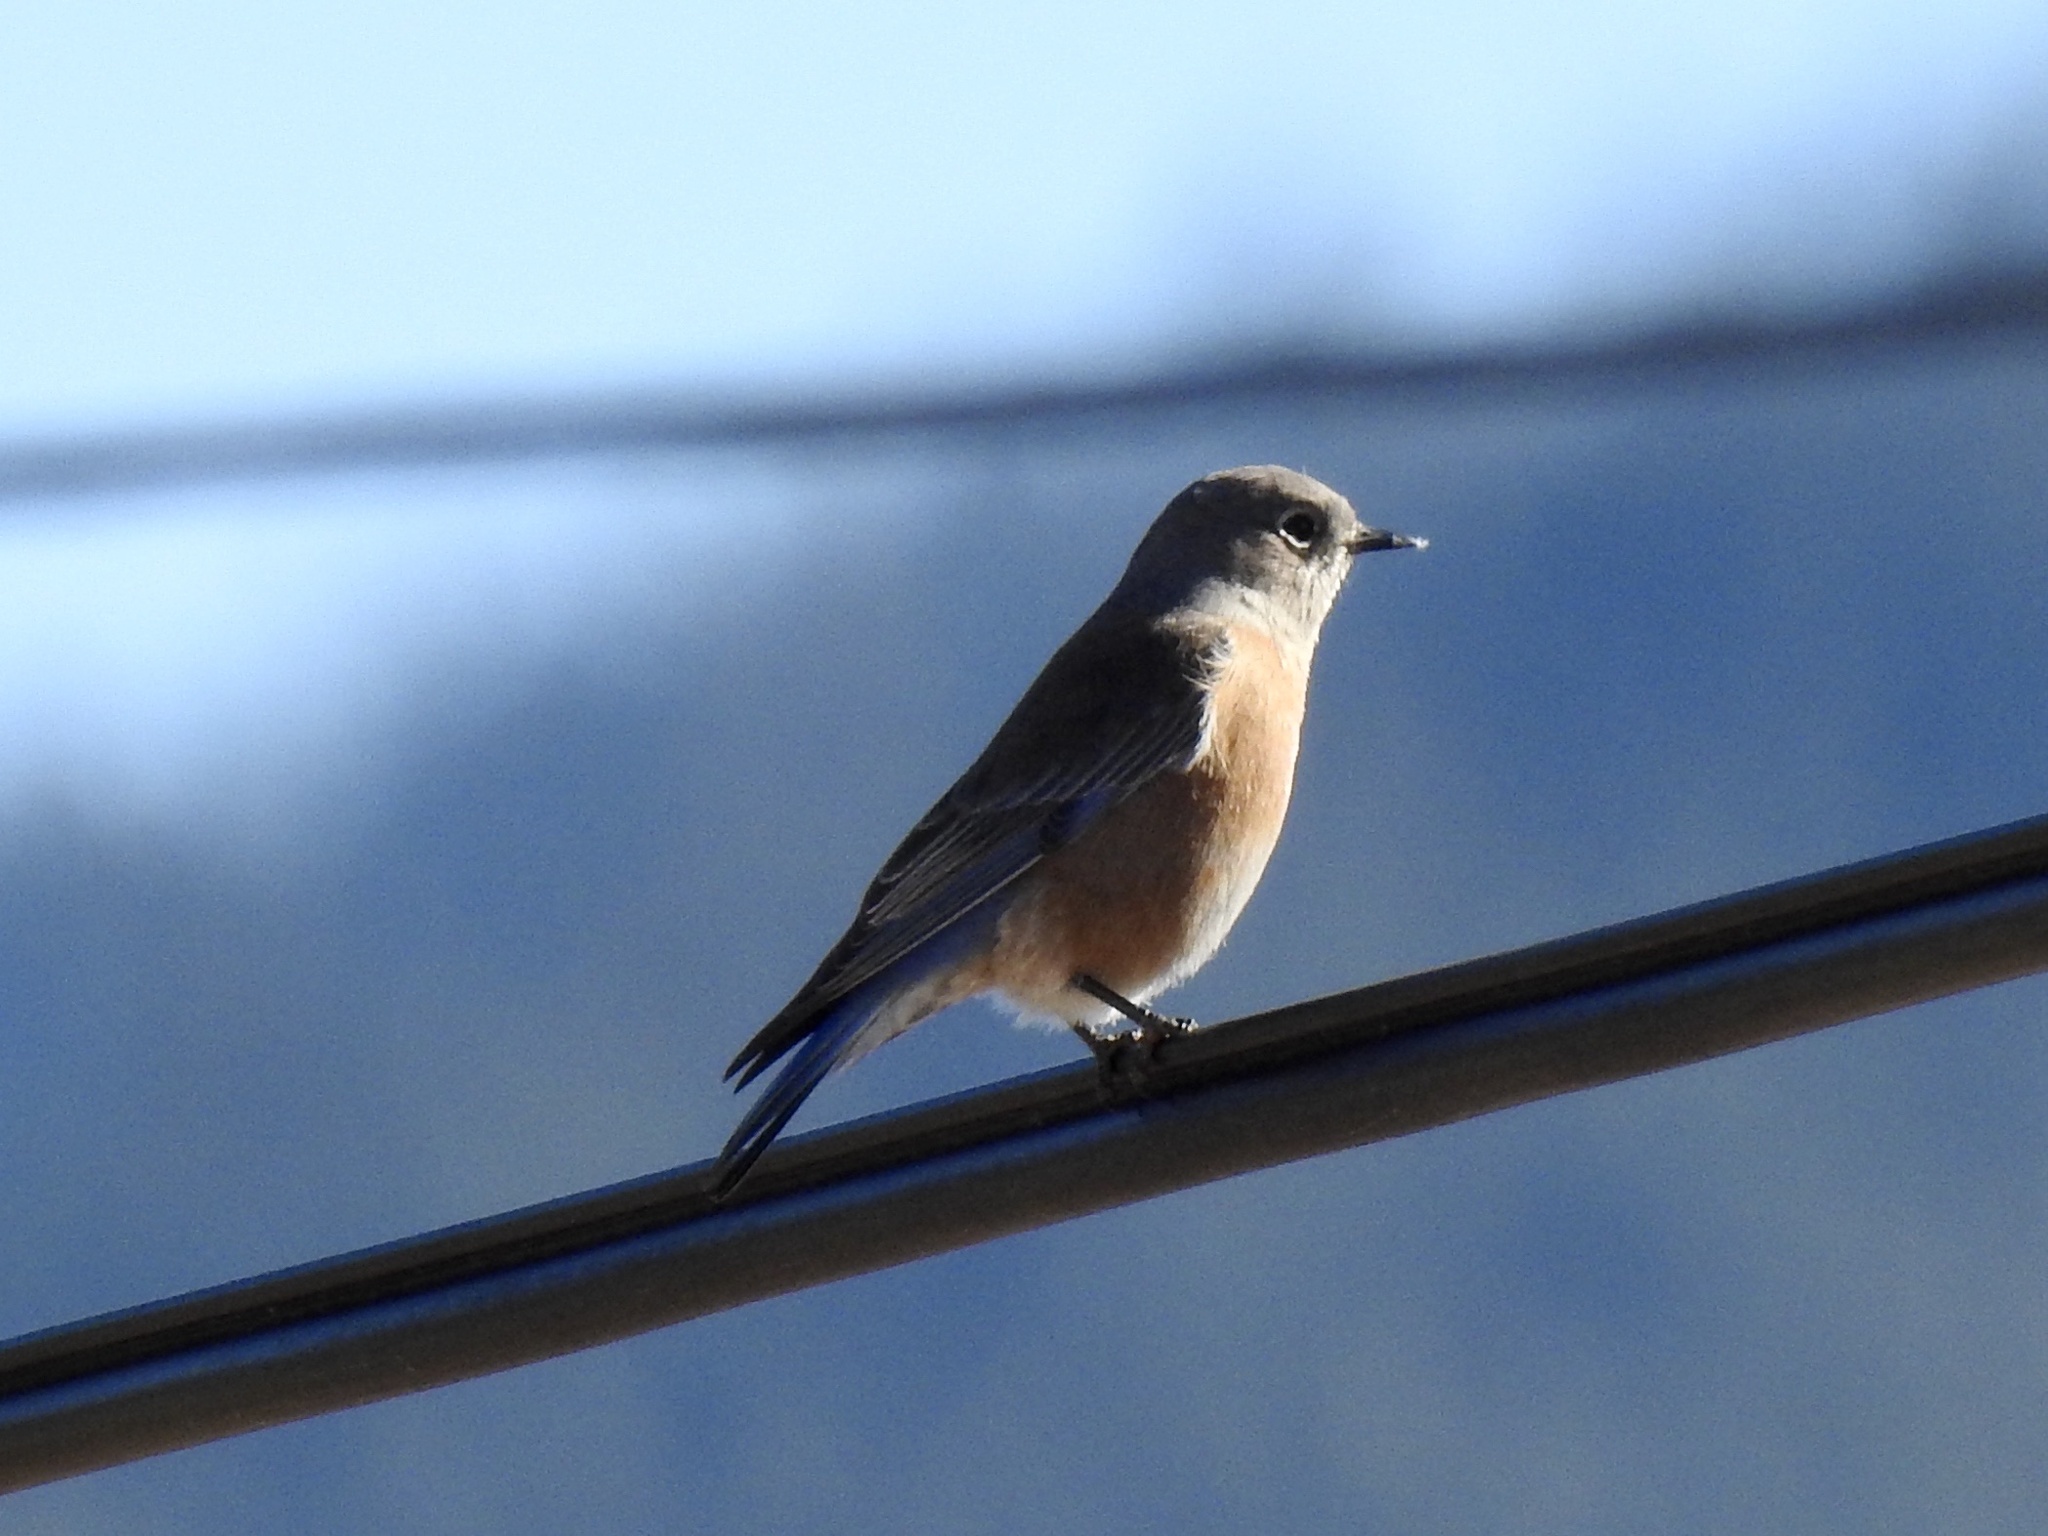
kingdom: Animalia
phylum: Chordata
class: Aves
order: Passeriformes
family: Turdidae
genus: Sialia
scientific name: Sialia mexicana
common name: Western bluebird
